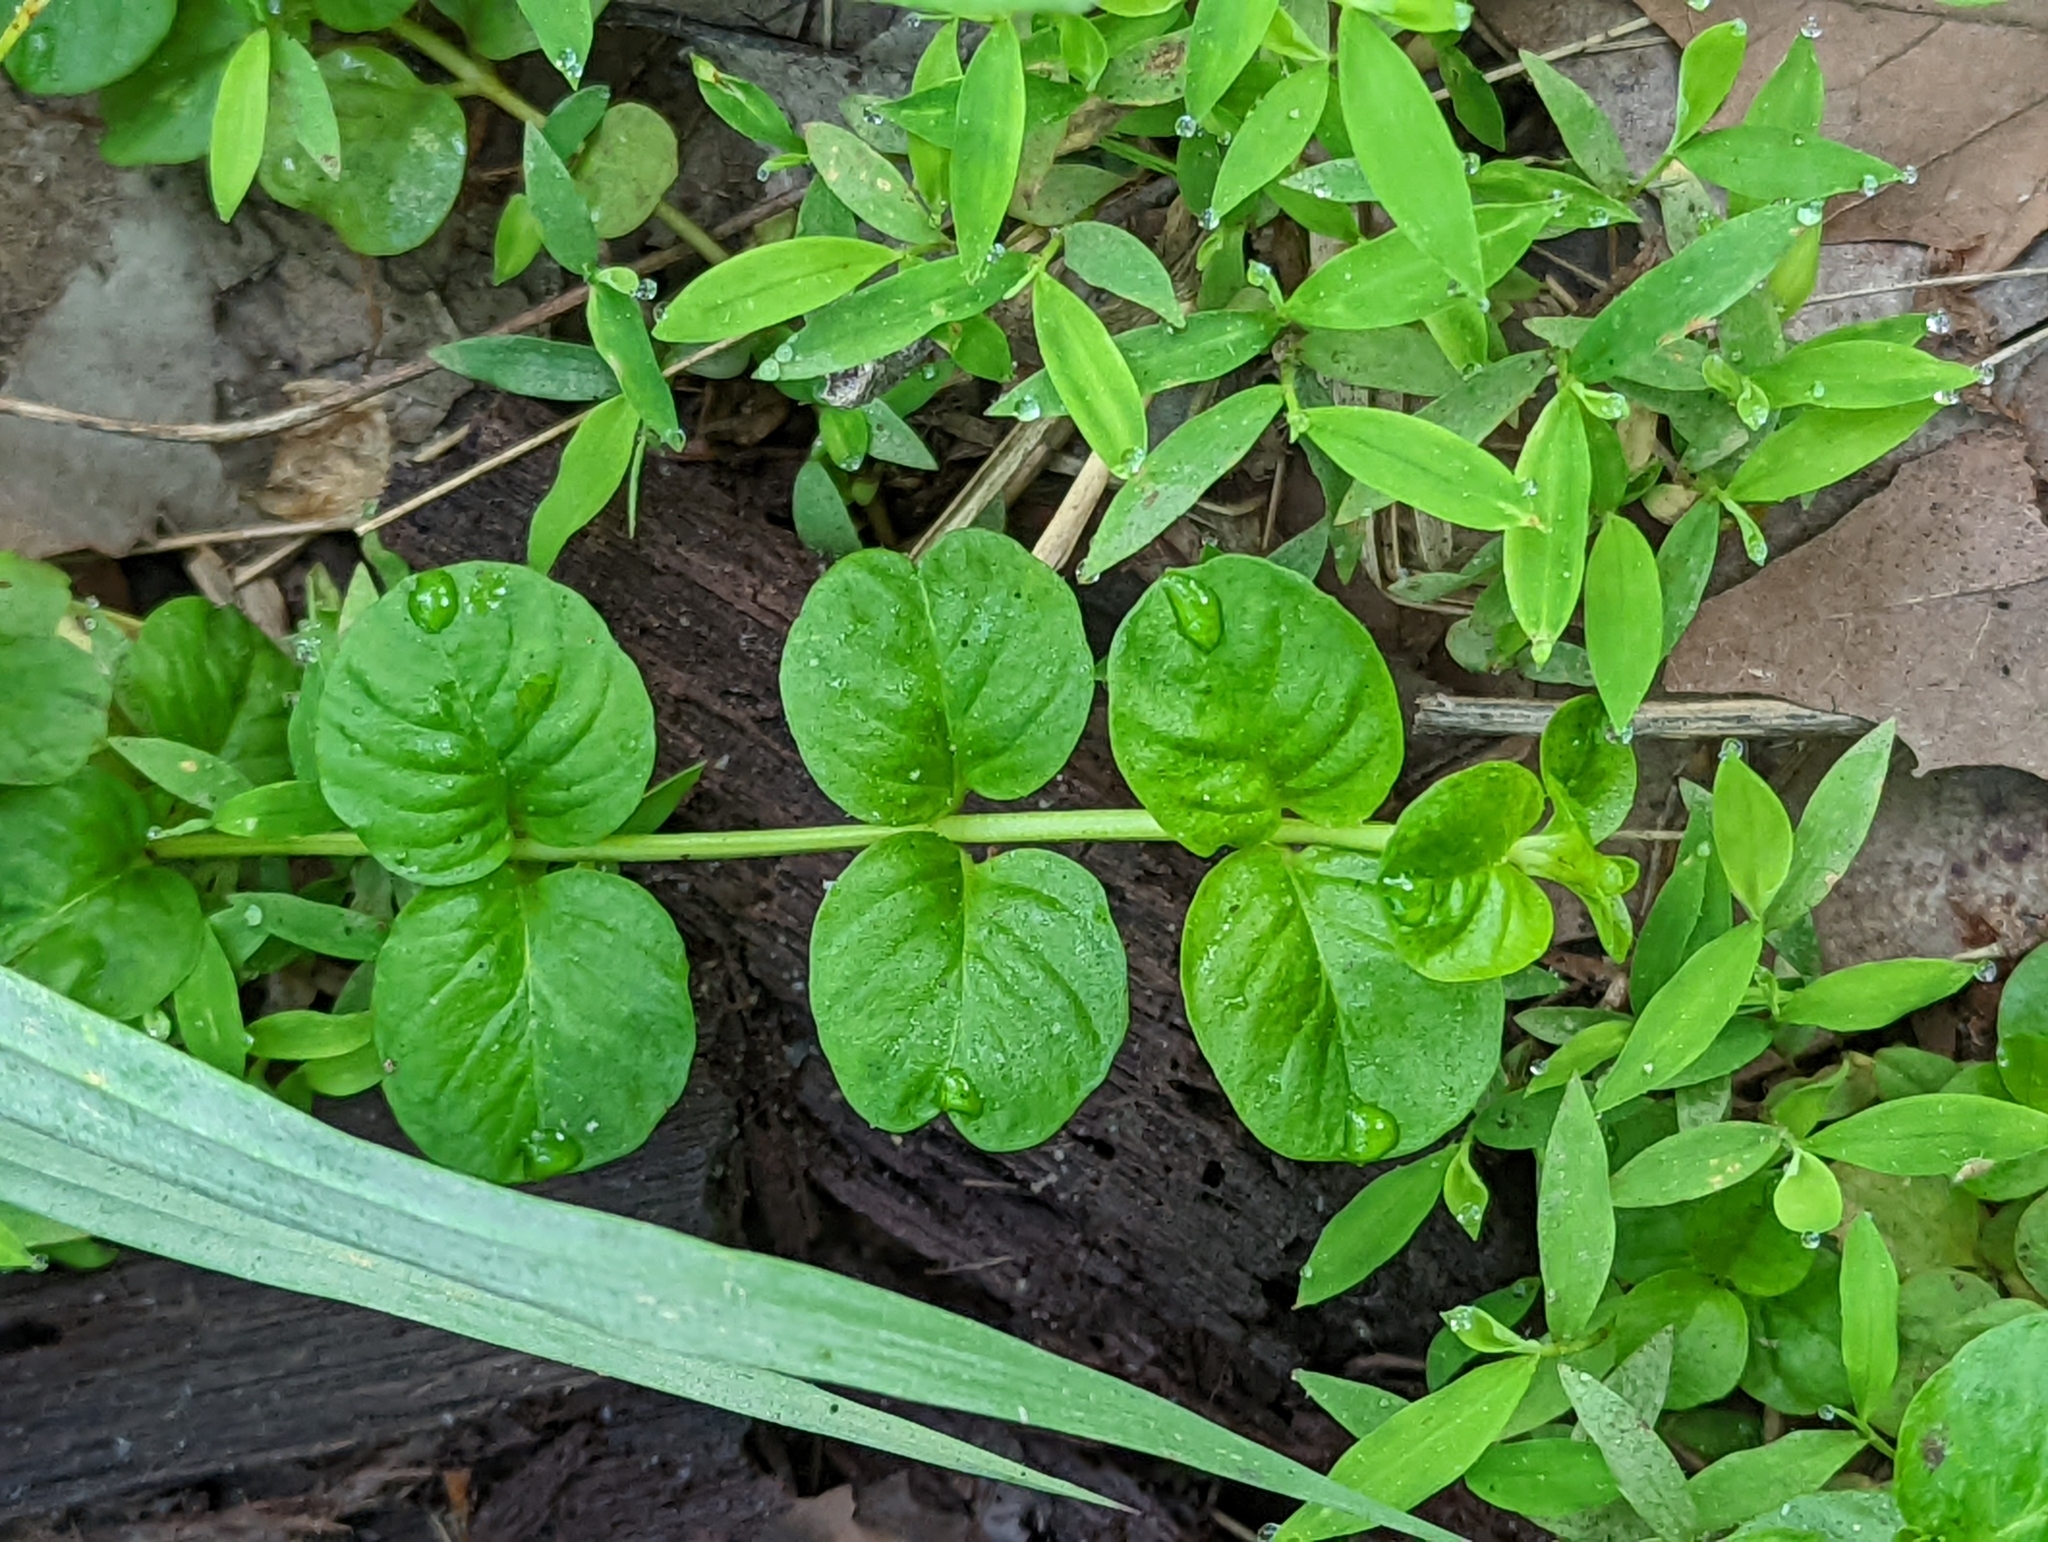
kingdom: Plantae
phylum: Tracheophyta
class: Magnoliopsida
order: Ericales
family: Primulaceae
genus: Lysimachia
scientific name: Lysimachia nummularia
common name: Moneywort
